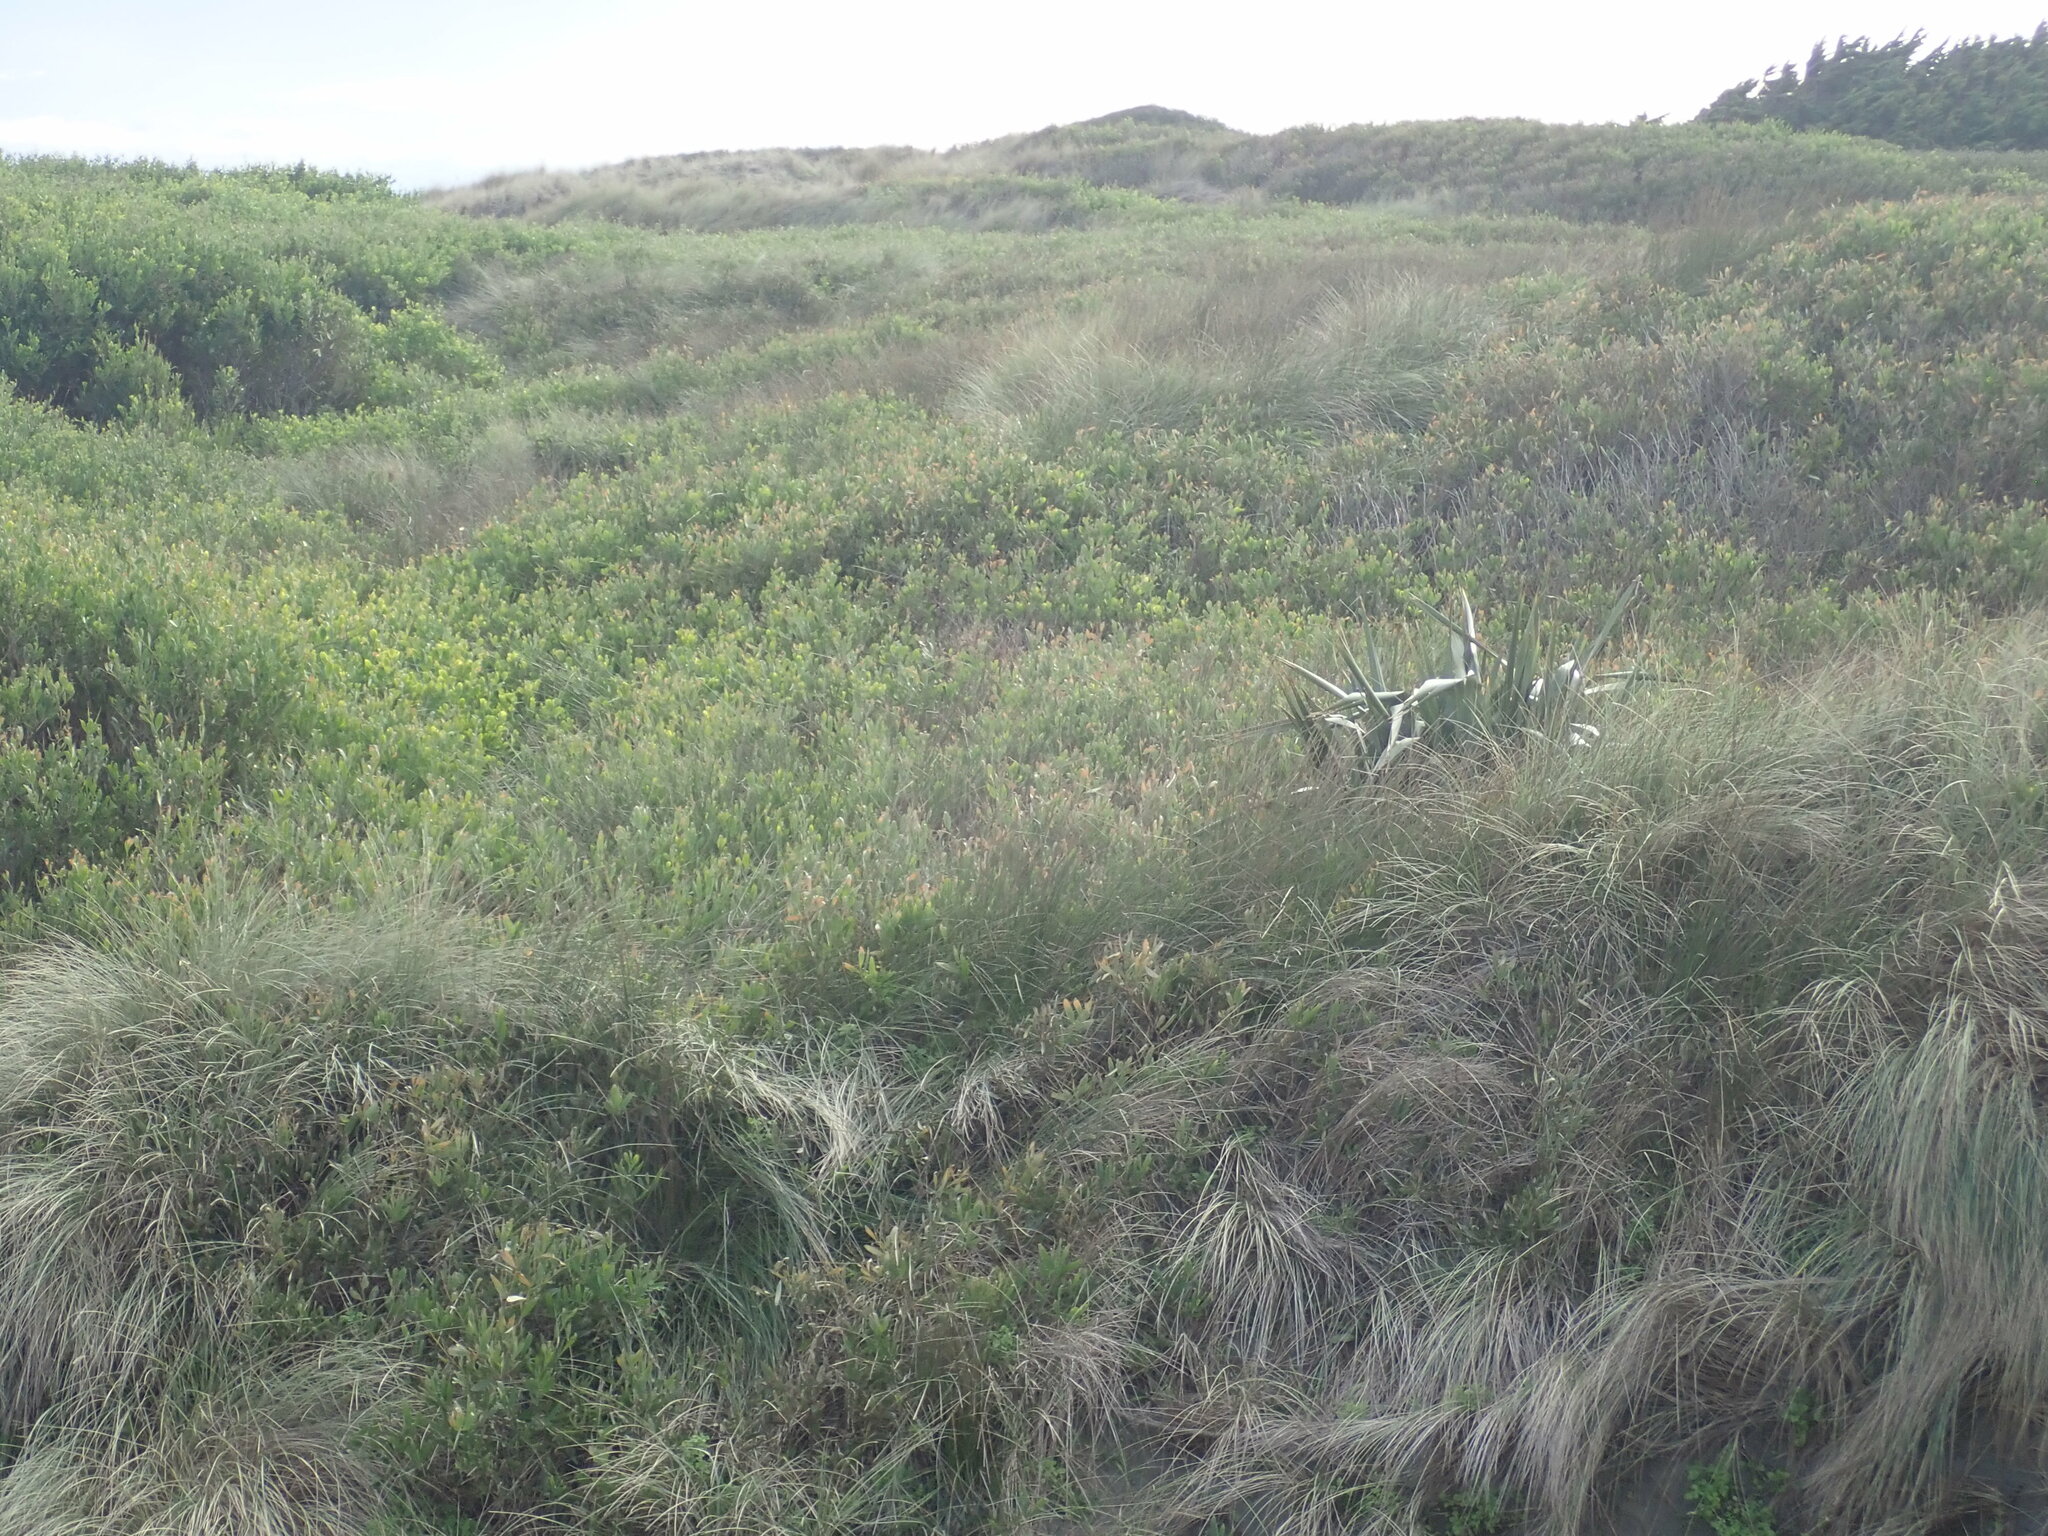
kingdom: Plantae
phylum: Tracheophyta
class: Liliopsida
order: Asparagales
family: Asphodelaceae
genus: Phormium
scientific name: Phormium tenax
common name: New zealand flax
